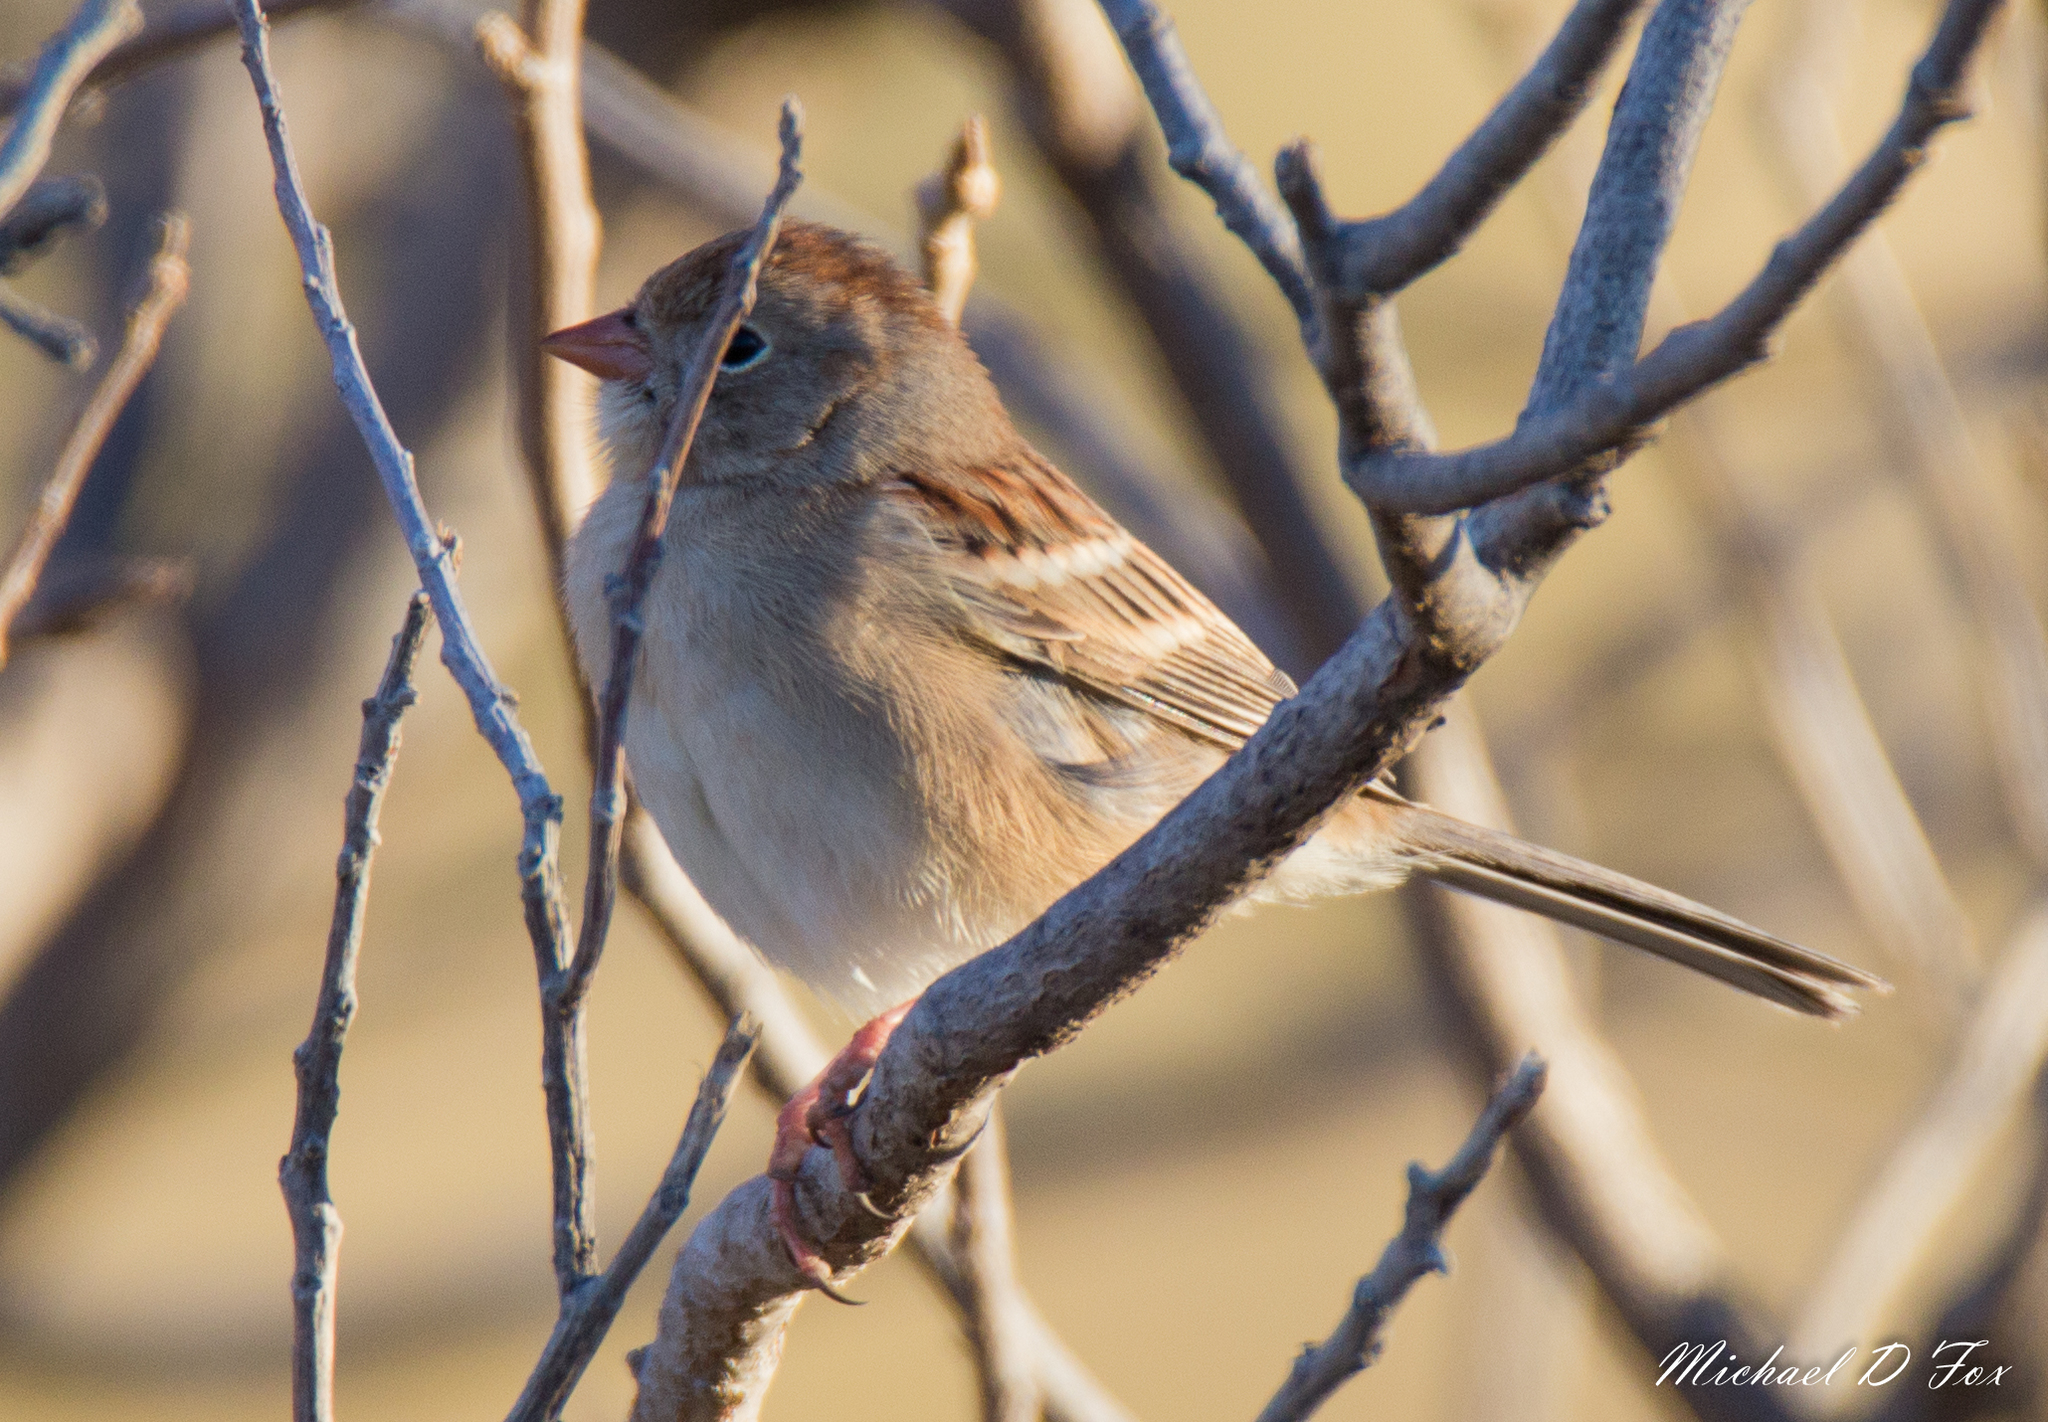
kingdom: Animalia
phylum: Chordata
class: Aves
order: Passeriformes
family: Passerellidae
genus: Spizella
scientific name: Spizella pusilla
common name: Field sparrow
